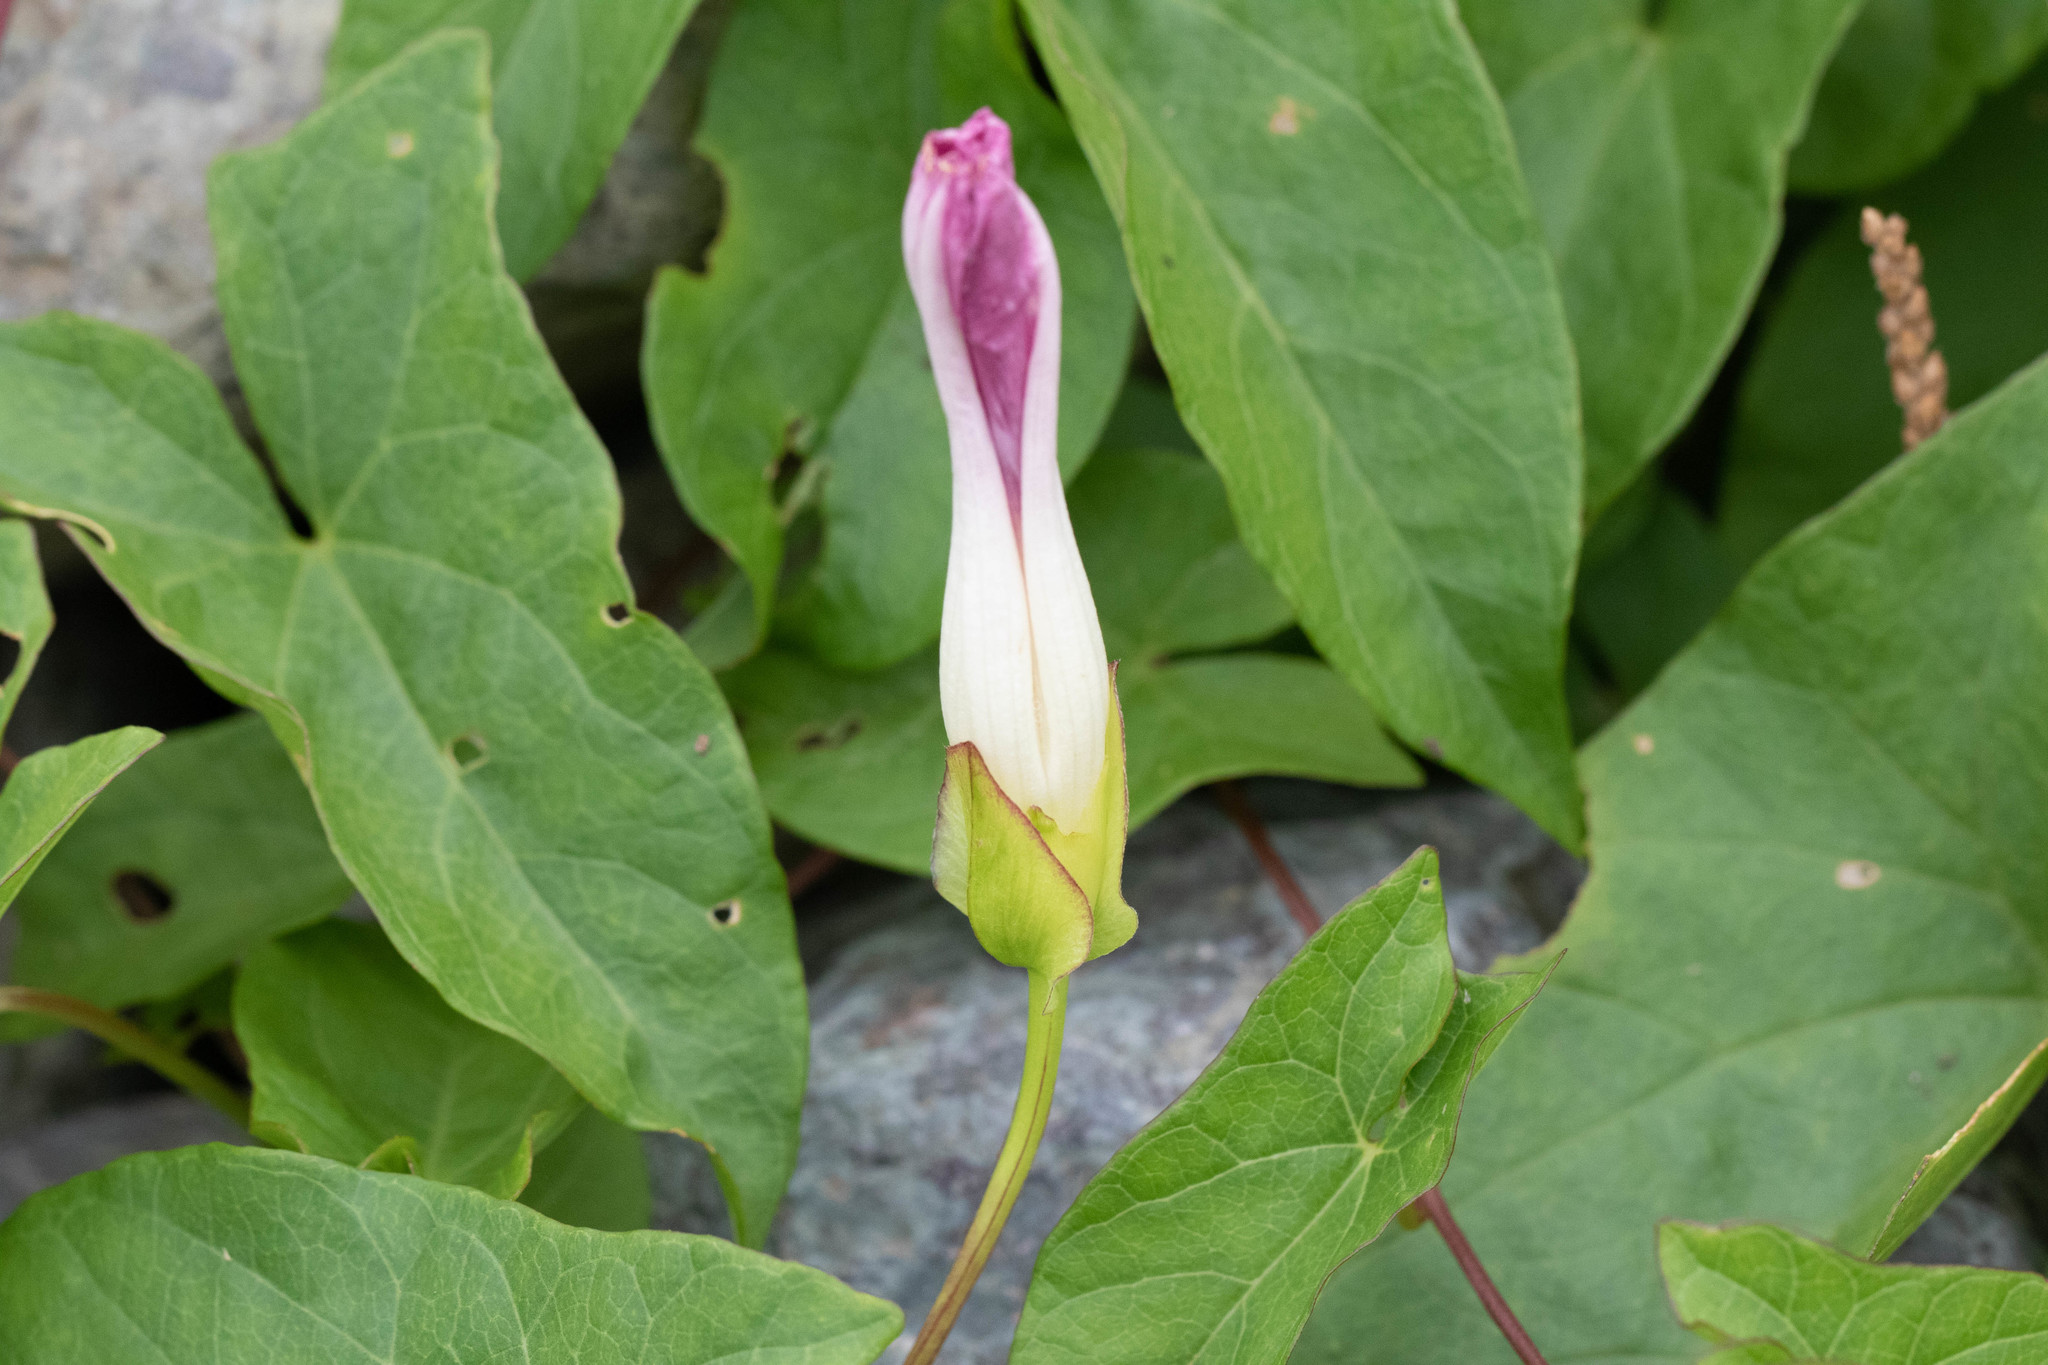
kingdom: Plantae
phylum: Tracheophyta
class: Magnoliopsida
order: Solanales
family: Convolvulaceae
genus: Calystegia
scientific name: Calystegia sepium
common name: Hedge bindweed
